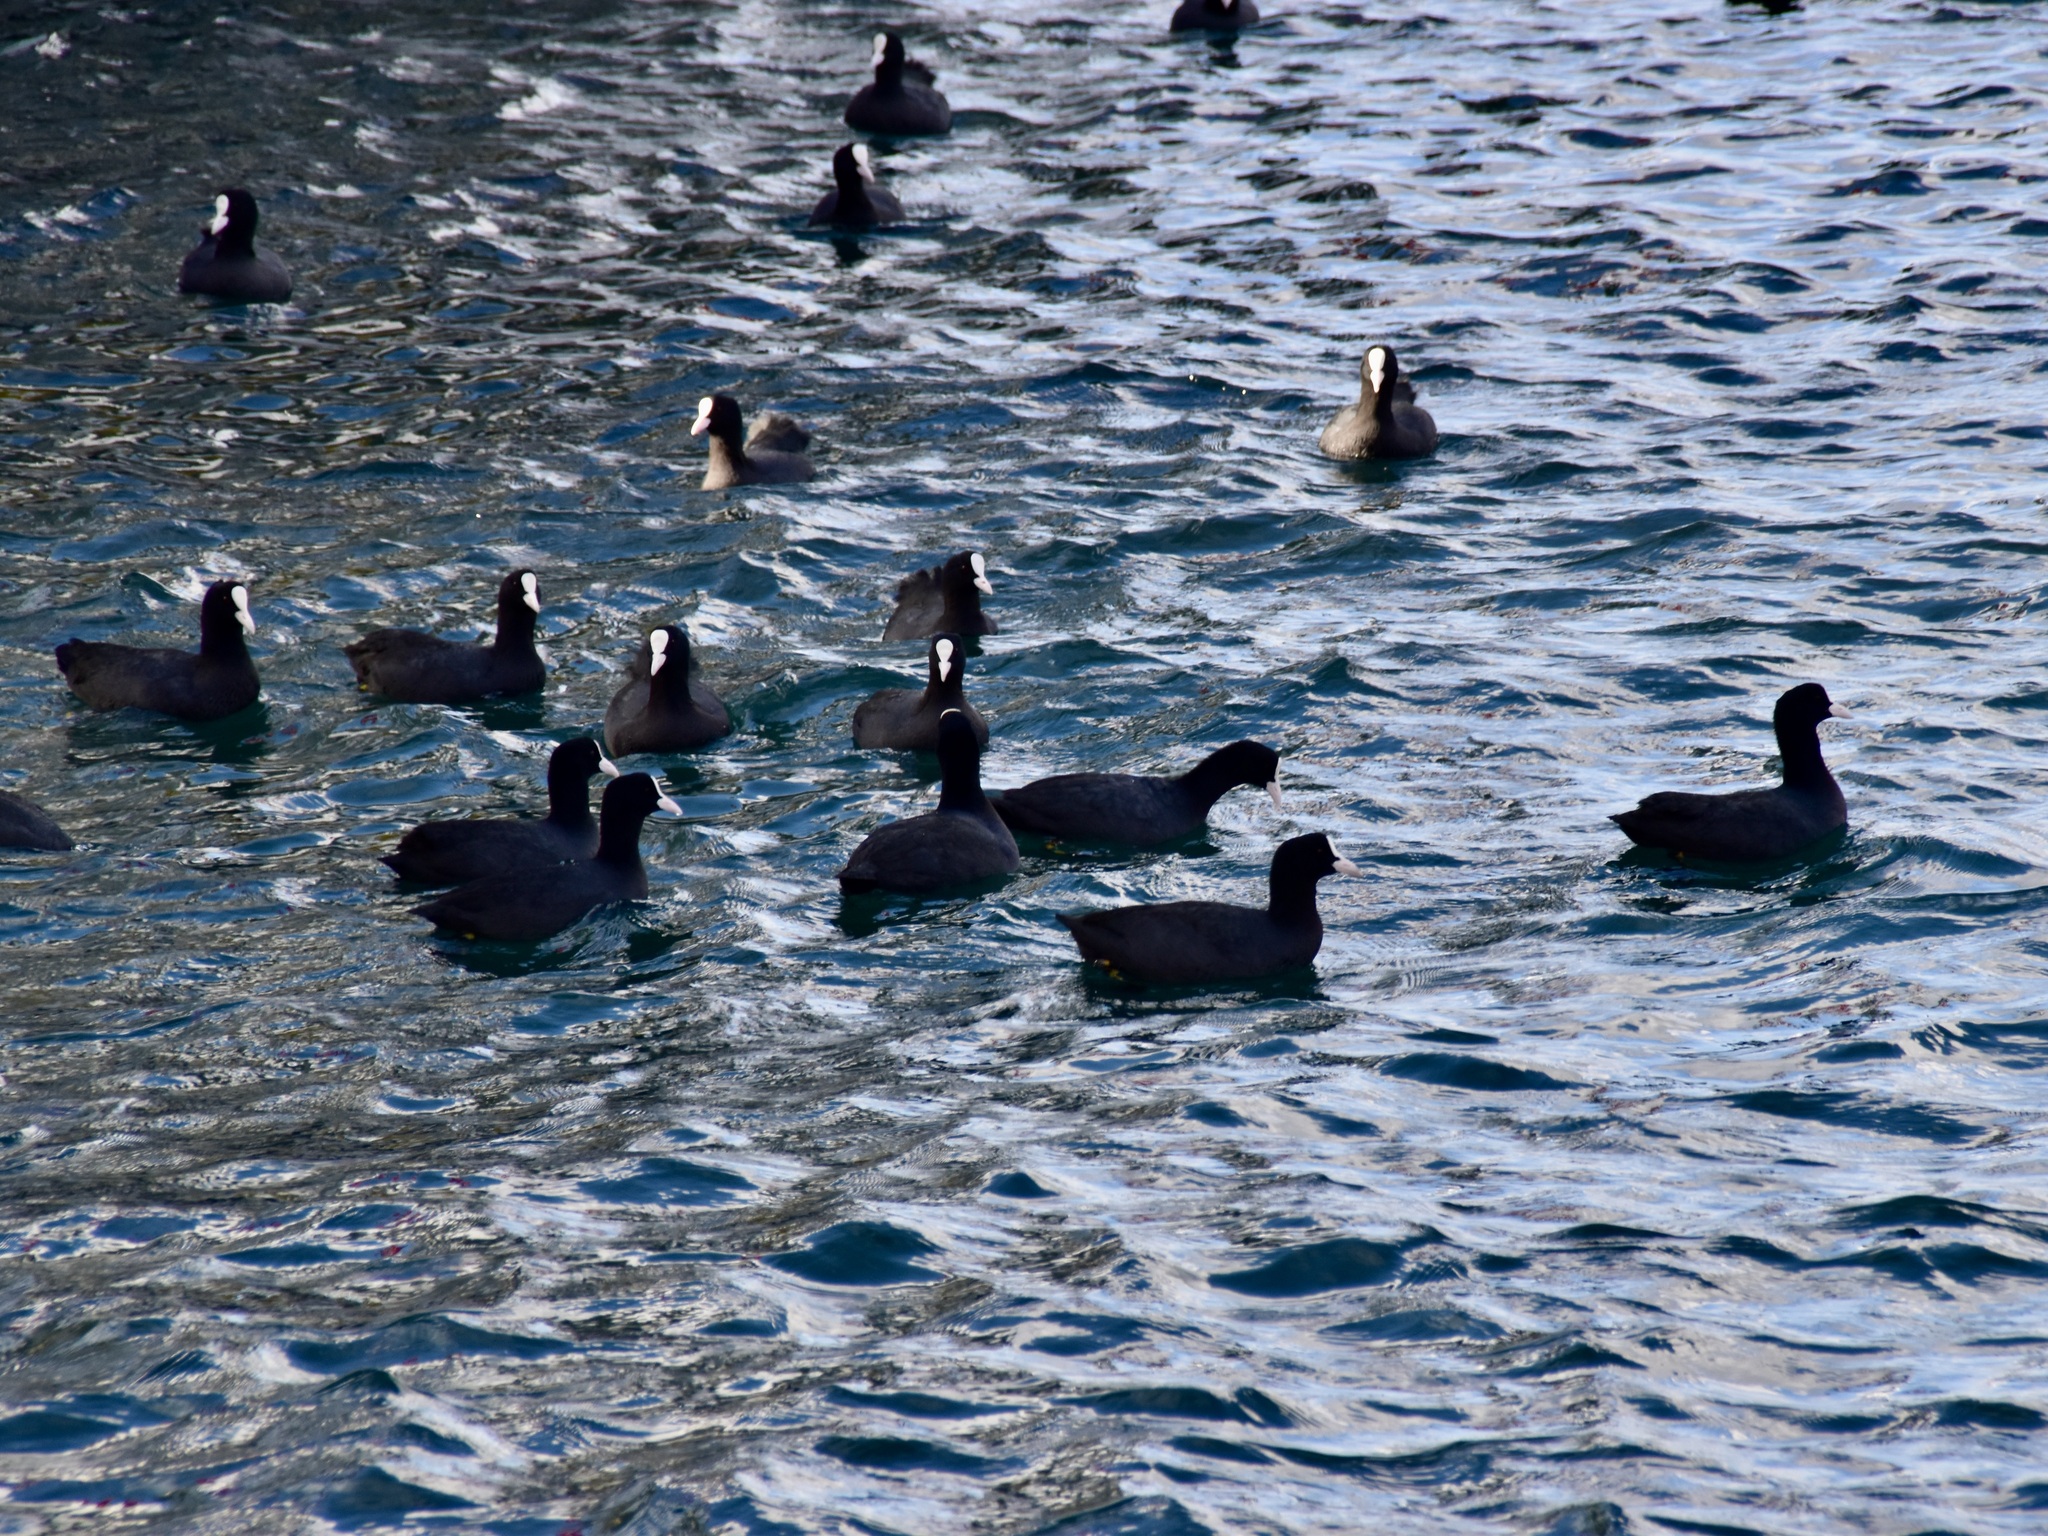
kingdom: Animalia
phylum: Chordata
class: Aves
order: Gruiformes
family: Rallidae
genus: Fulica
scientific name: Fulica atra
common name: Eurasian coot
